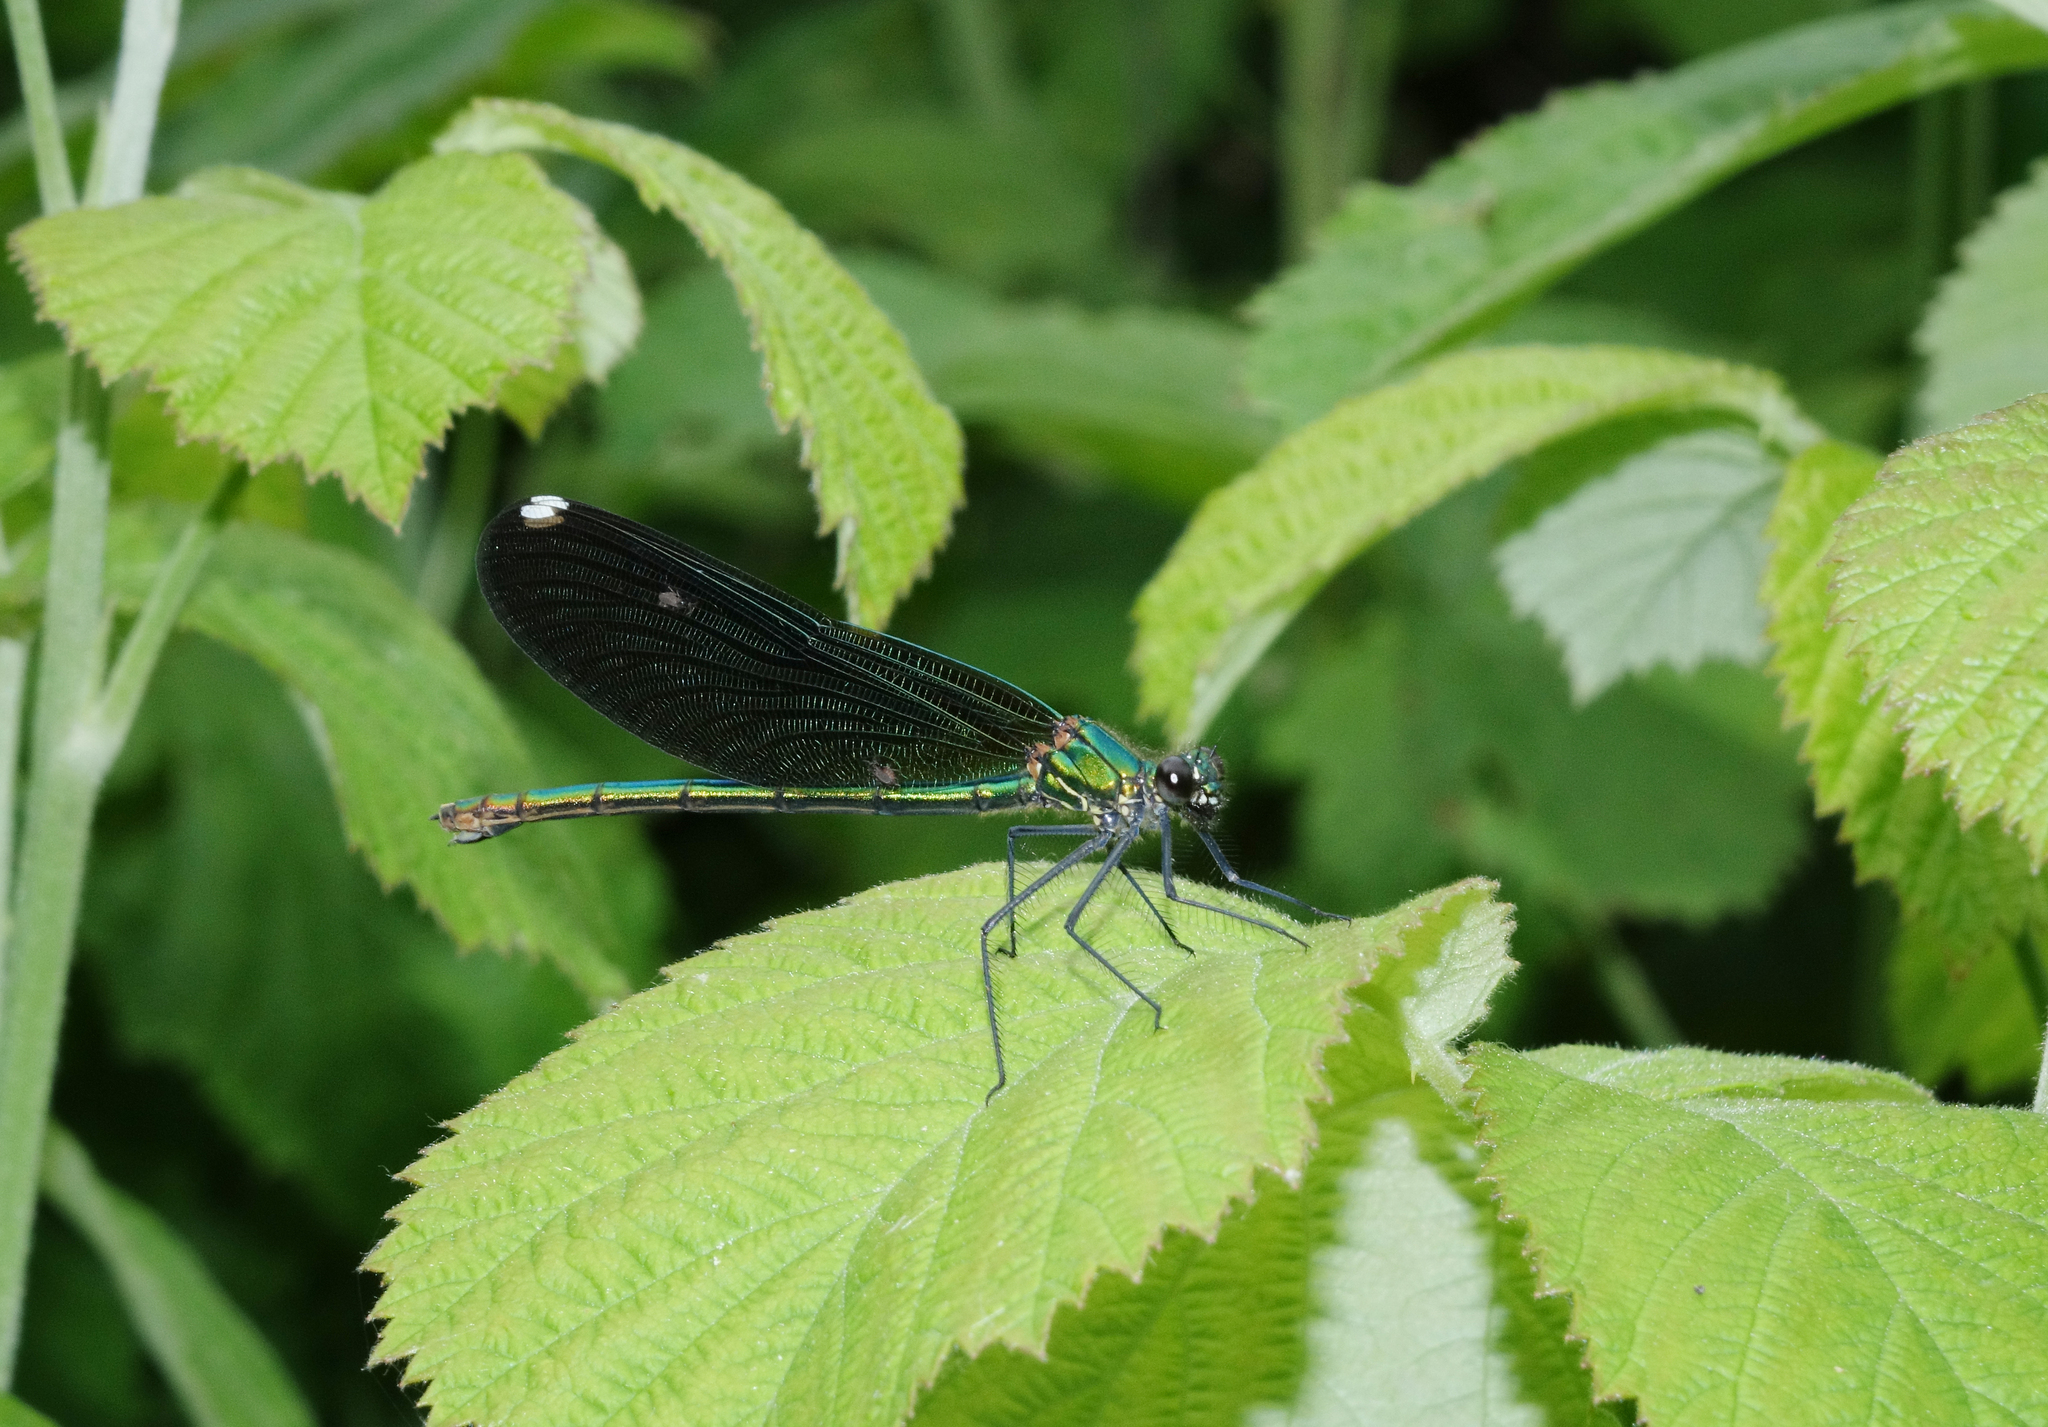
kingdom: Animalia
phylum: Arthropoda
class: Insecta
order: Odonata
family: Calopterygidae
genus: Calopteryx
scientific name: Calopteryx splendens
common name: Banded demoiselle
